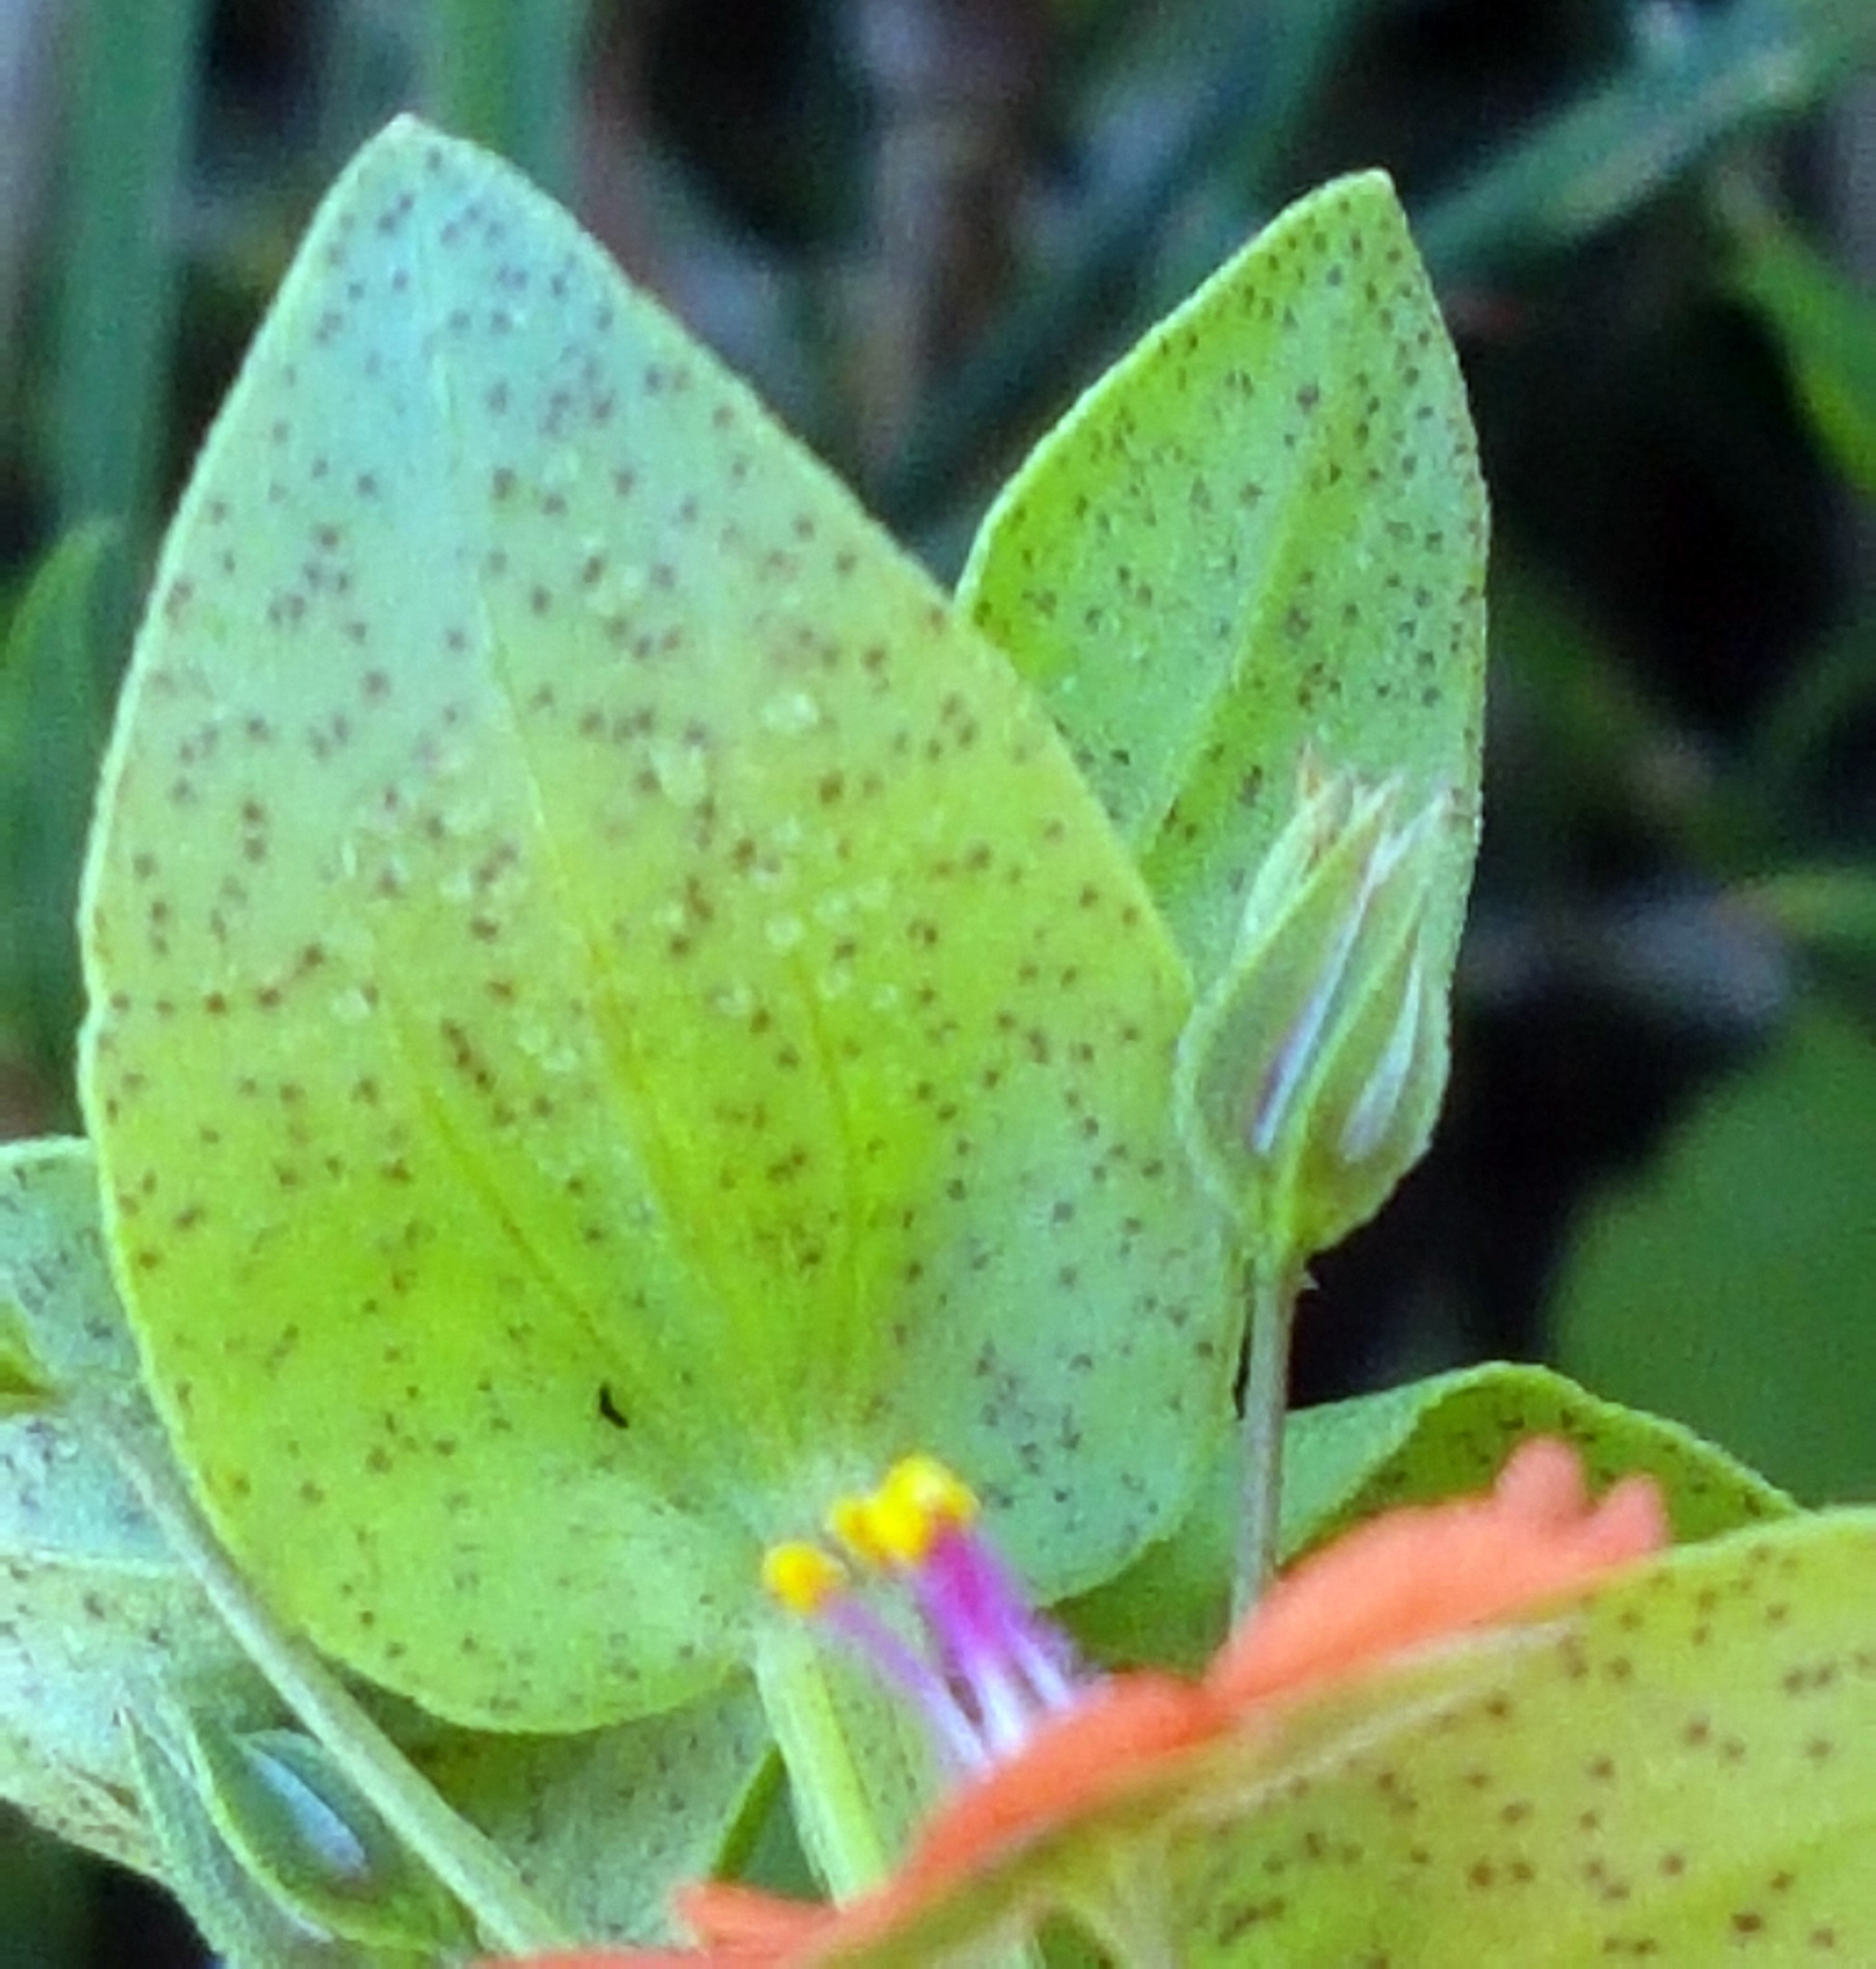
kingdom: Plantae
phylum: Tracheophyta
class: Magnoliopsida
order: Ericales
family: Primulaceae
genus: Lysimachia
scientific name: Lysimachia arvensis
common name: Scarlet pimpernel
